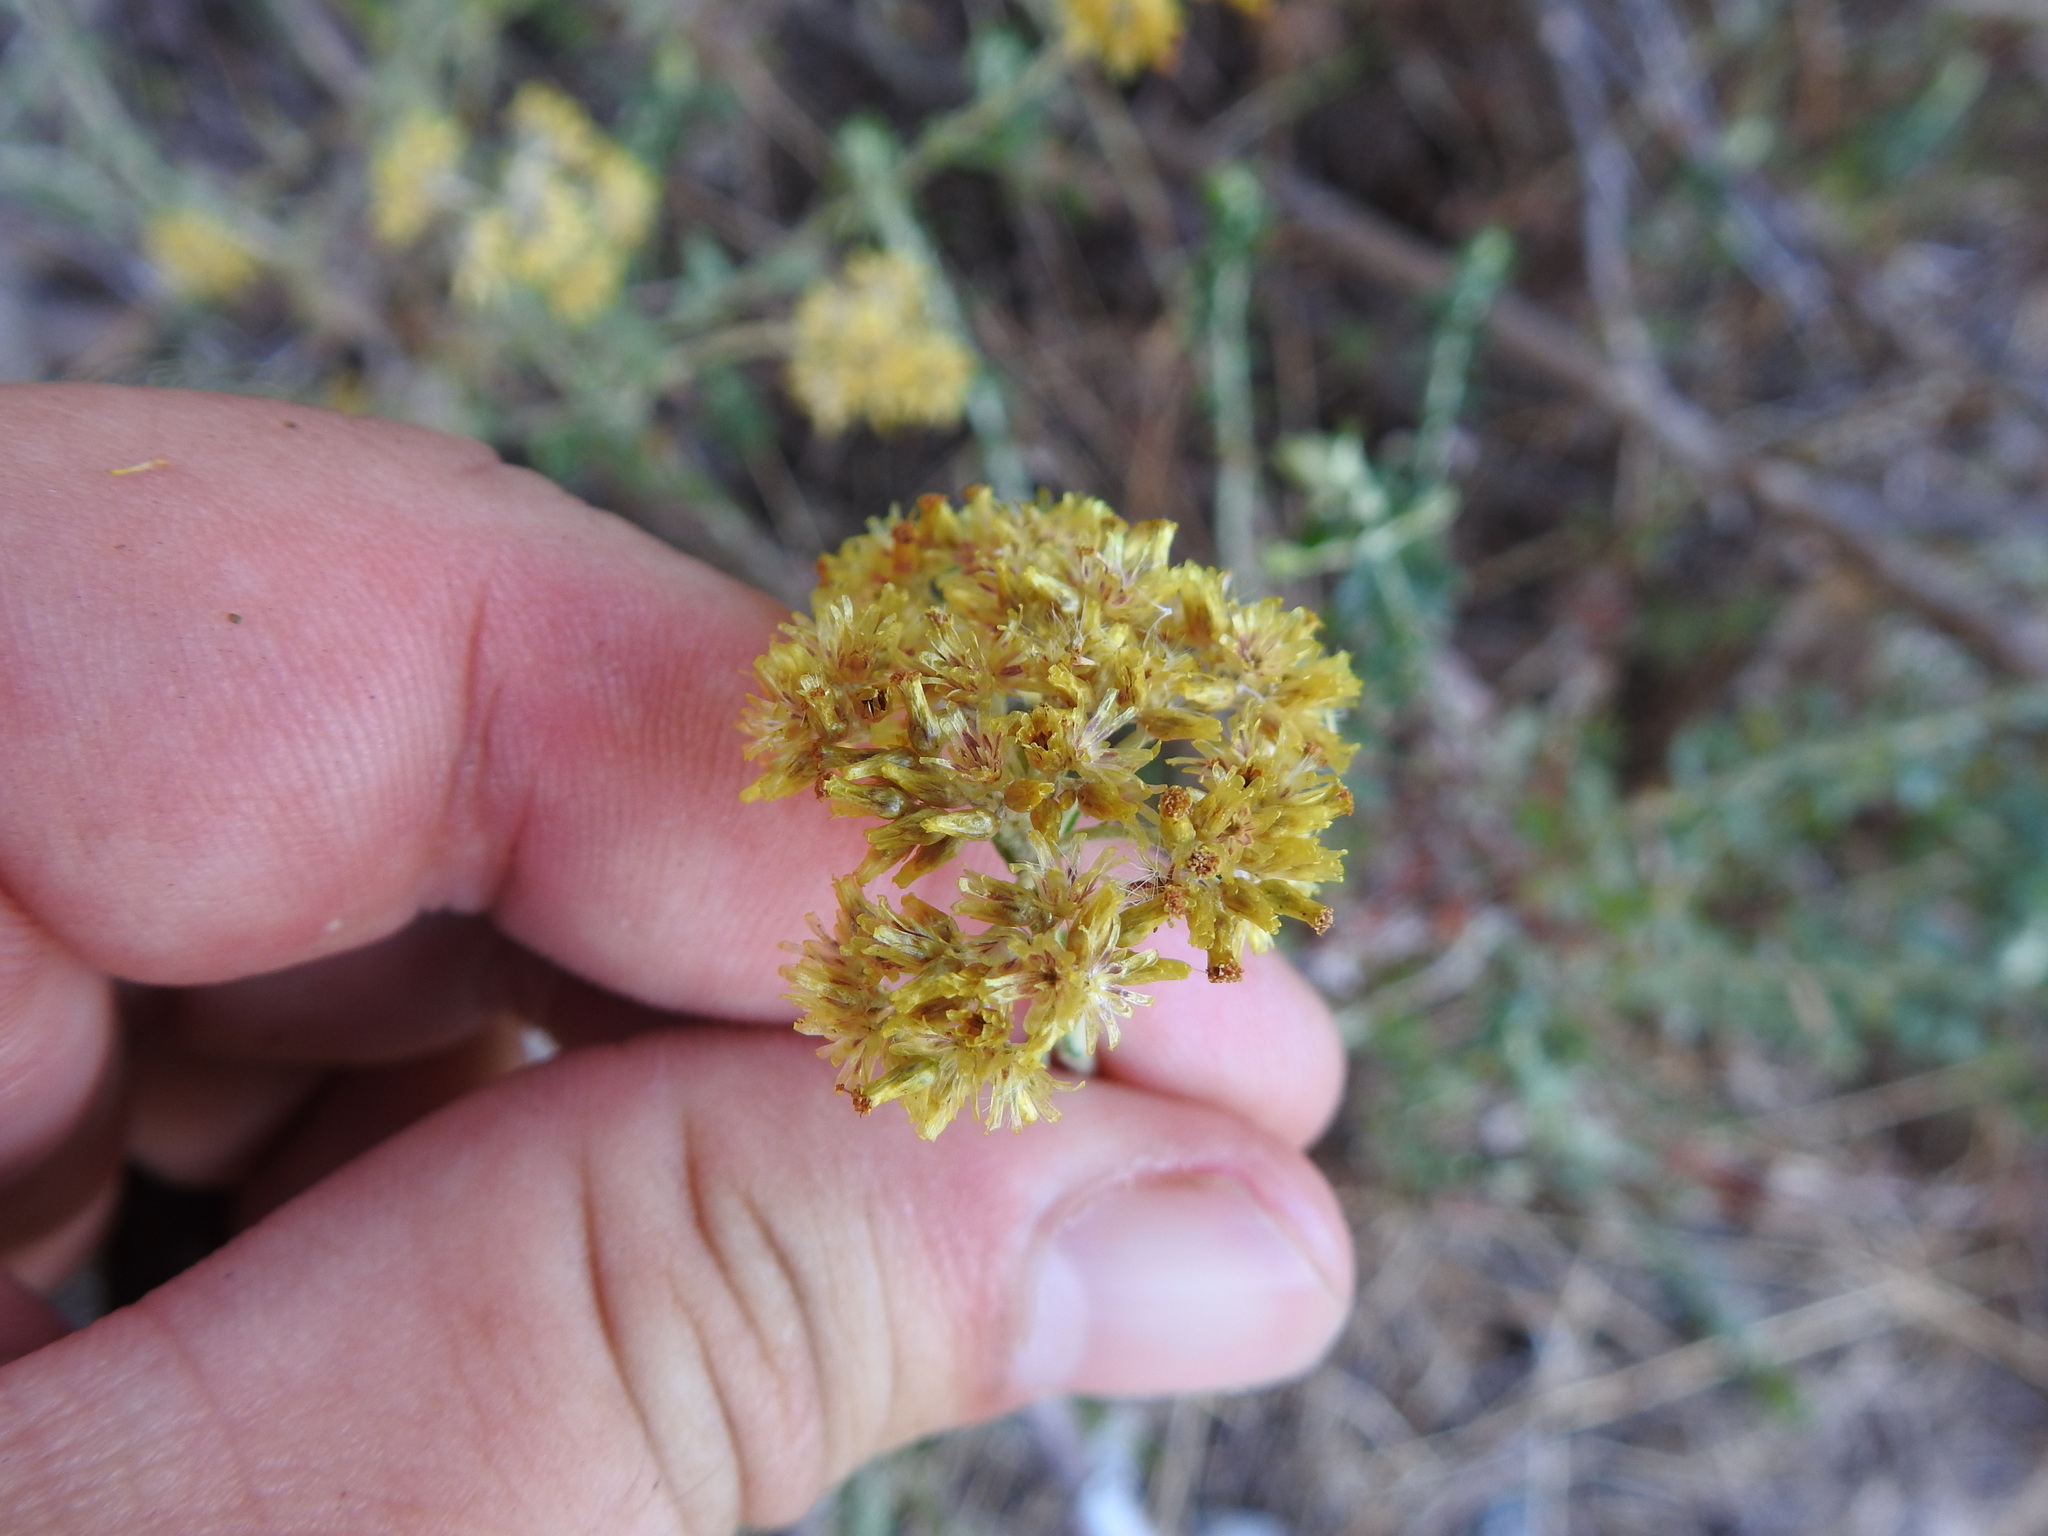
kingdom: Plantae
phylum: Tracheophyta
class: Magnoliopsida
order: Asterales
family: Asteraceae
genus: Helichrysum
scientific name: Helichrysum cymosum
